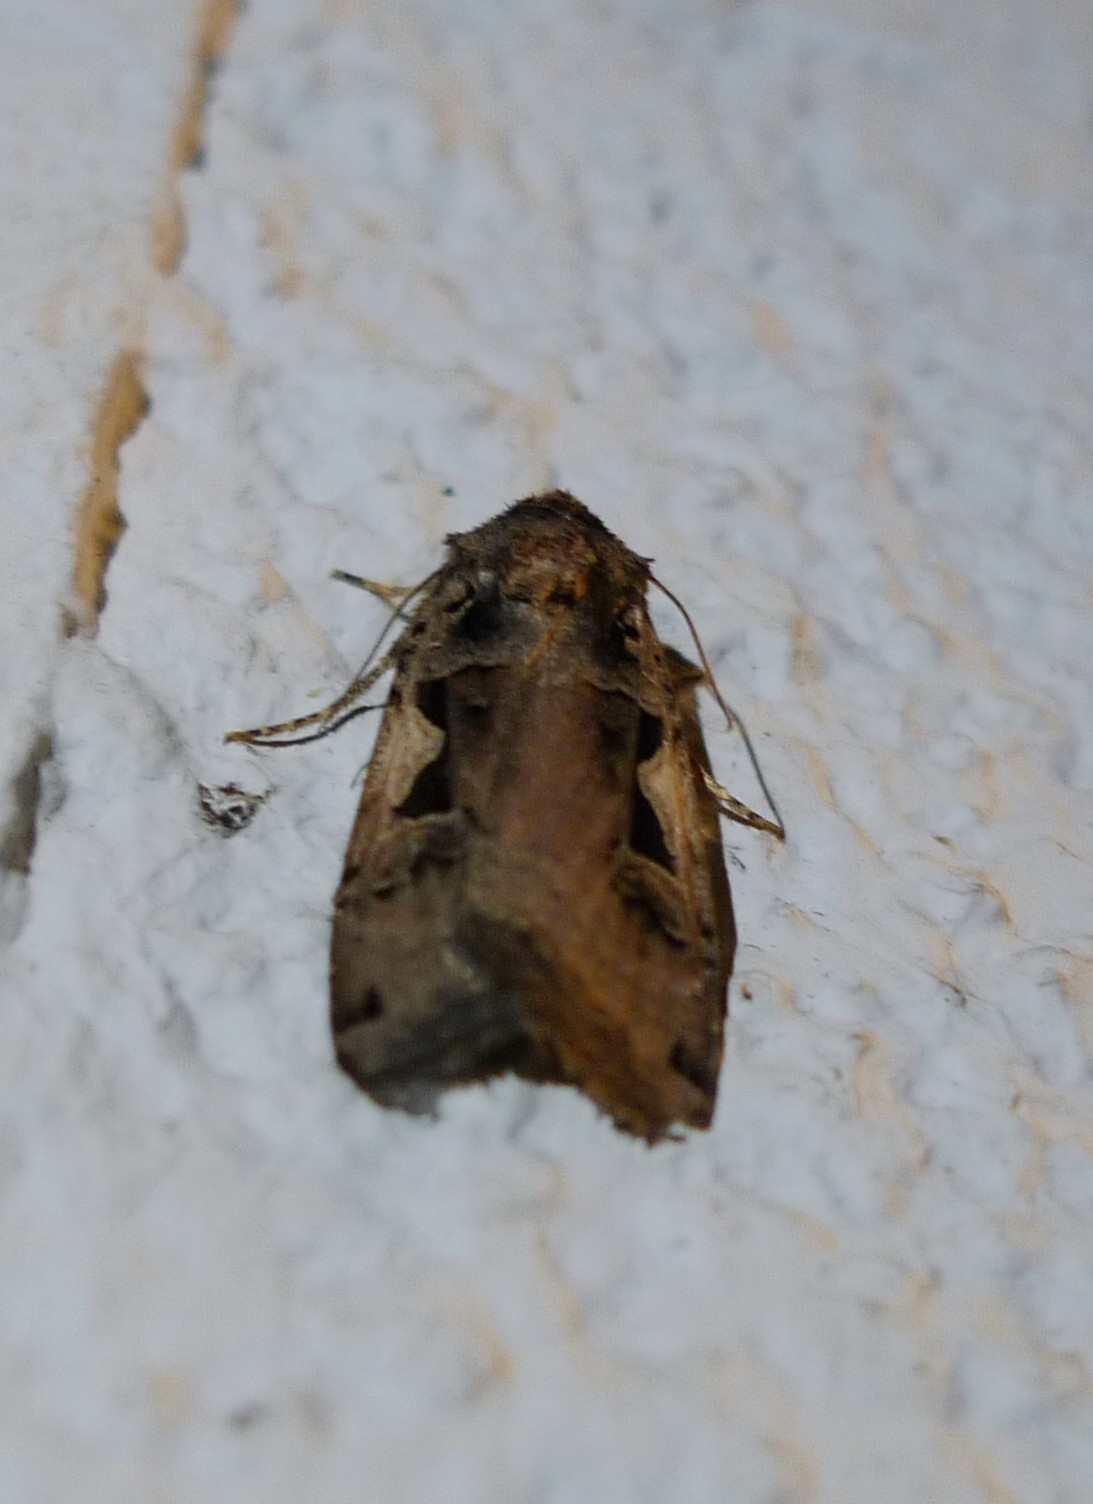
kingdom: Animalia
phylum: Arthropoda
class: Insecta
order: Lepidoptera
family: Noctuidae
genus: Xestia
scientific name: Xestia c-nigrum
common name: Setaceous hebrew character
